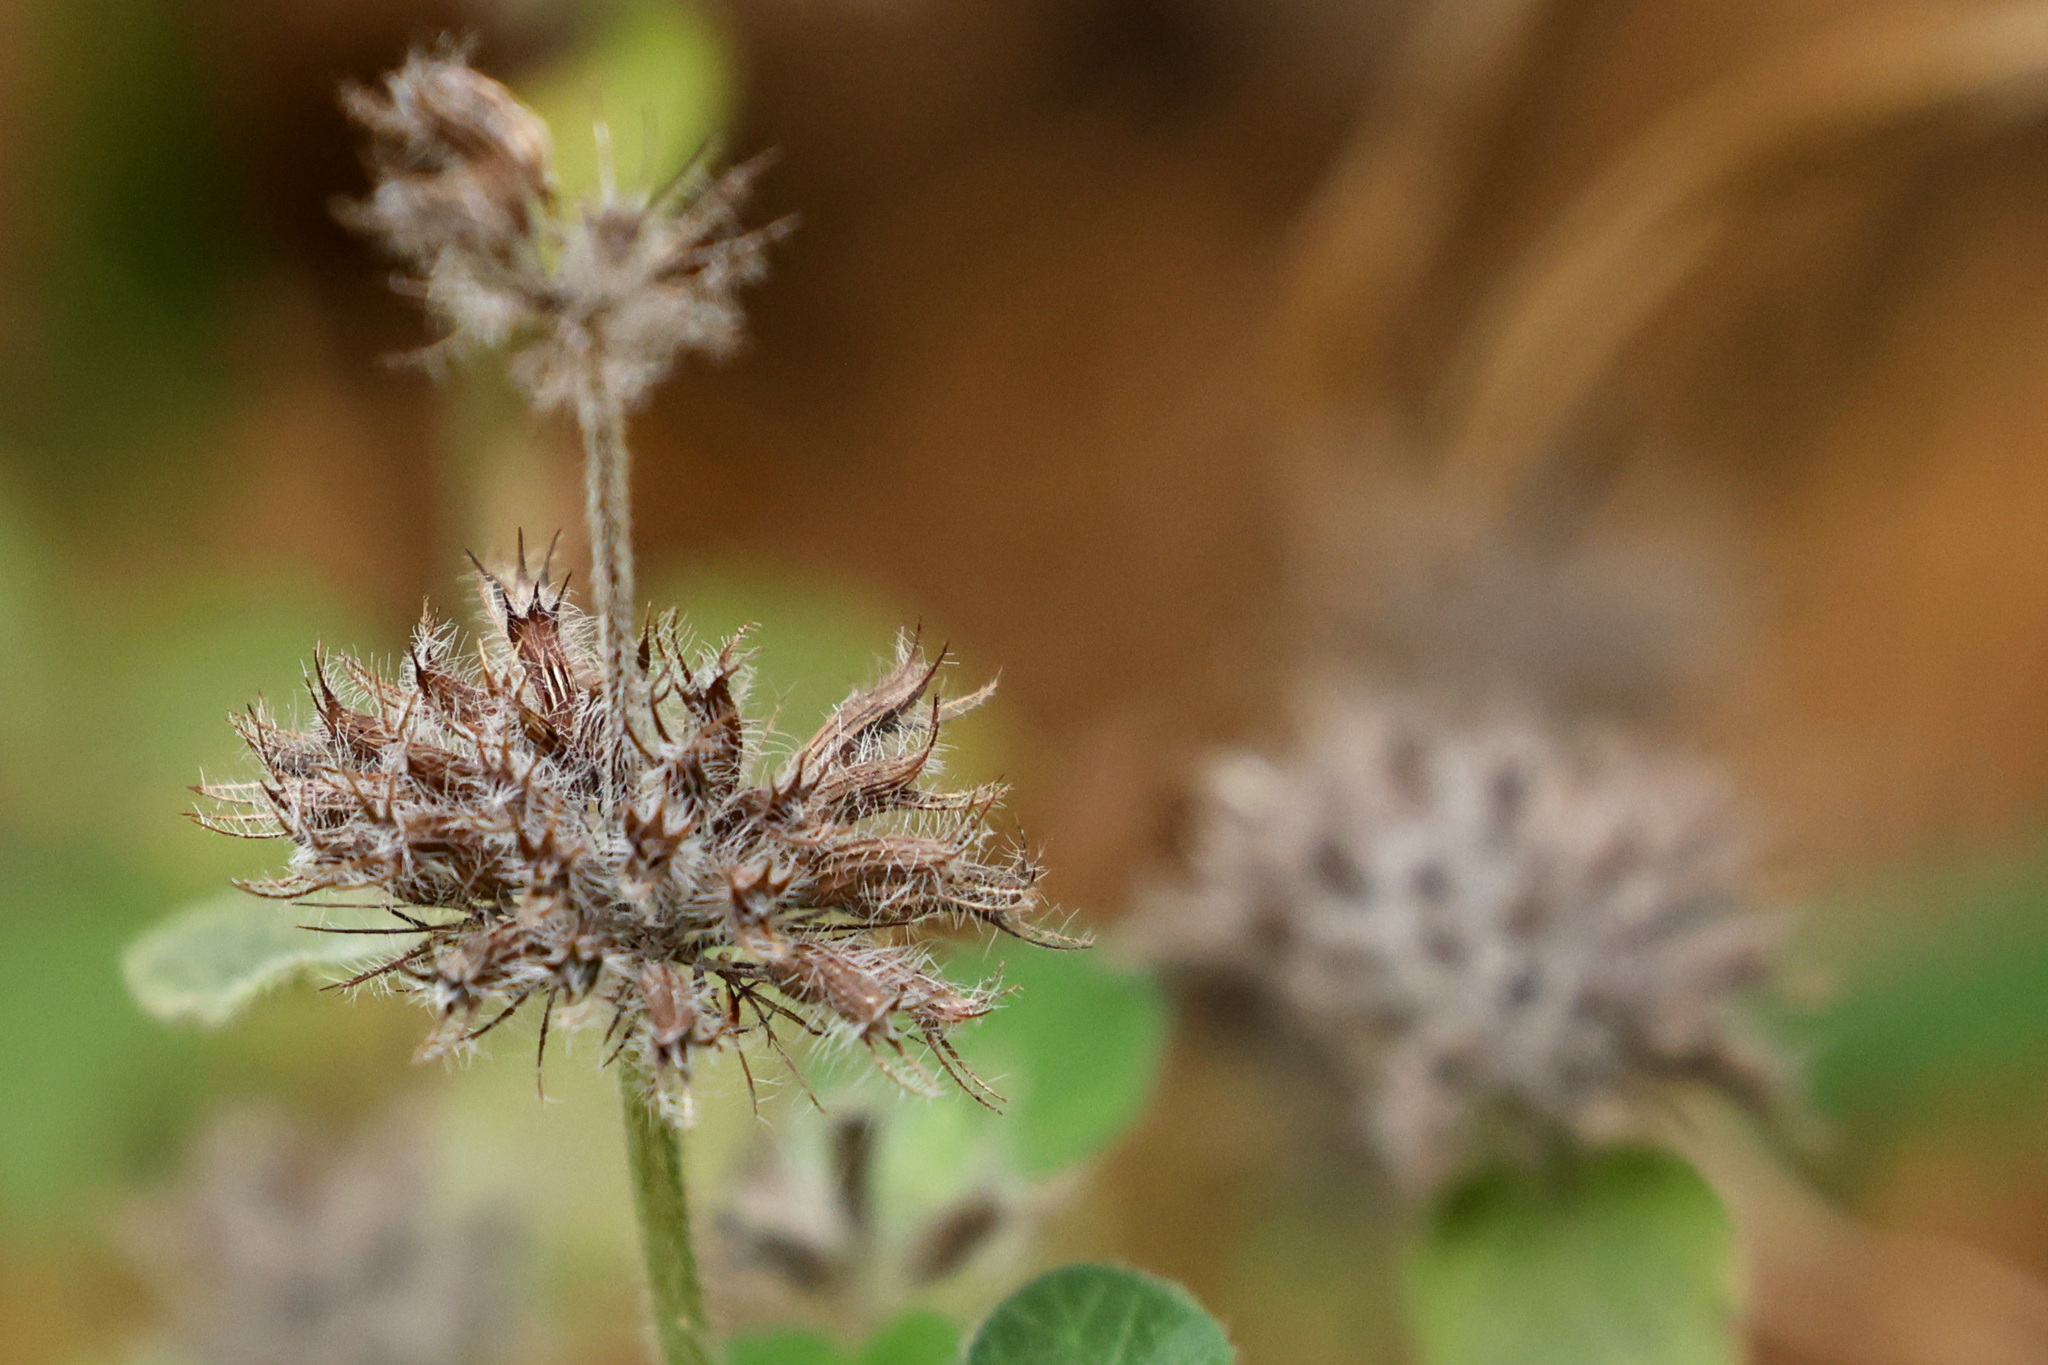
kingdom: Plantae
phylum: Tracheophyta
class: Magnoliopsida
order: Lamiales
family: Lamiaceae
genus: Clinopodium
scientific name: Clinopodium vulgare
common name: Wild basil
